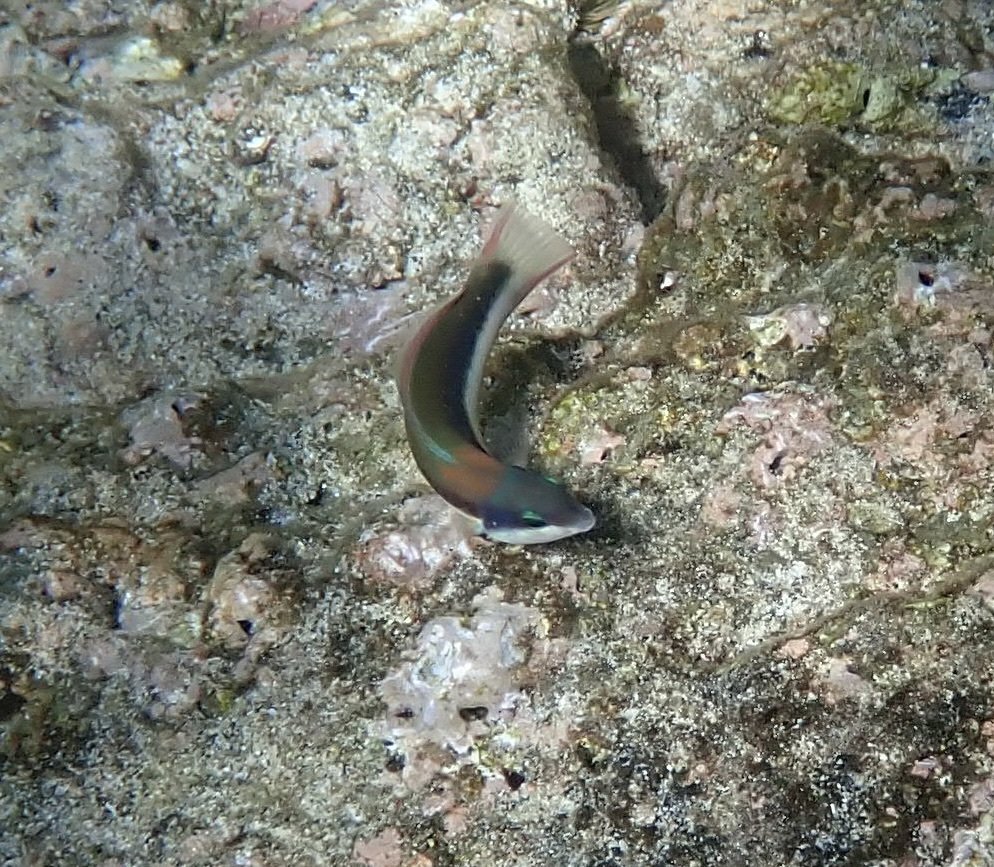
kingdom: Animalia
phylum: Chordata
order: Perciformes
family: Labridae
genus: Thalassoma
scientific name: Thalassoma duperrey
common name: Saddle wrasse
